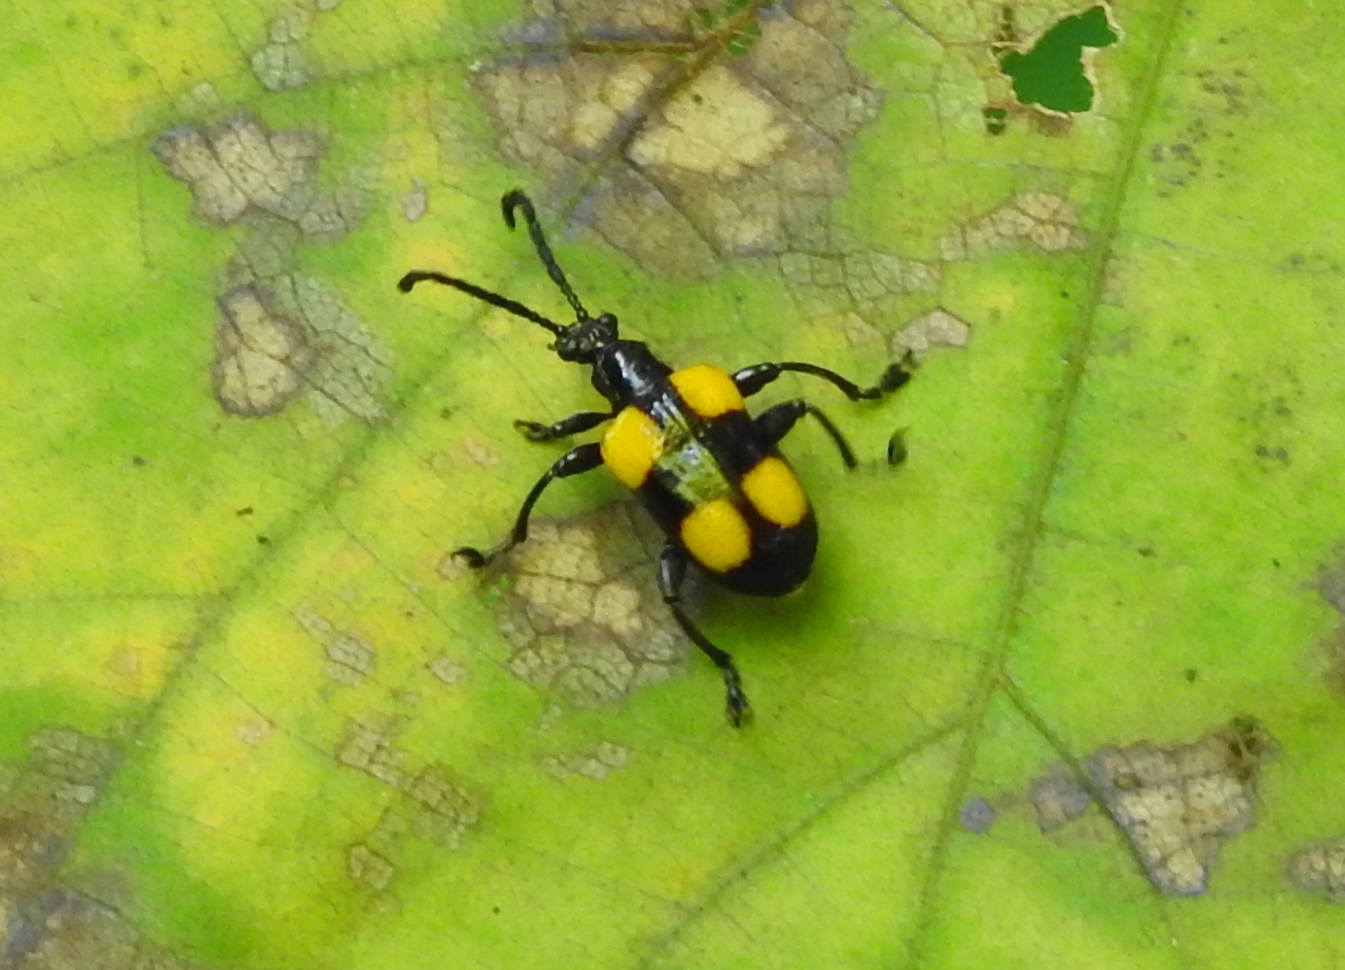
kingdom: Animalia
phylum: Arthropoda
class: Insecta
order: Coleoptera
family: Chrysomelidae
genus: Lilioceris
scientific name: Lilioceris
